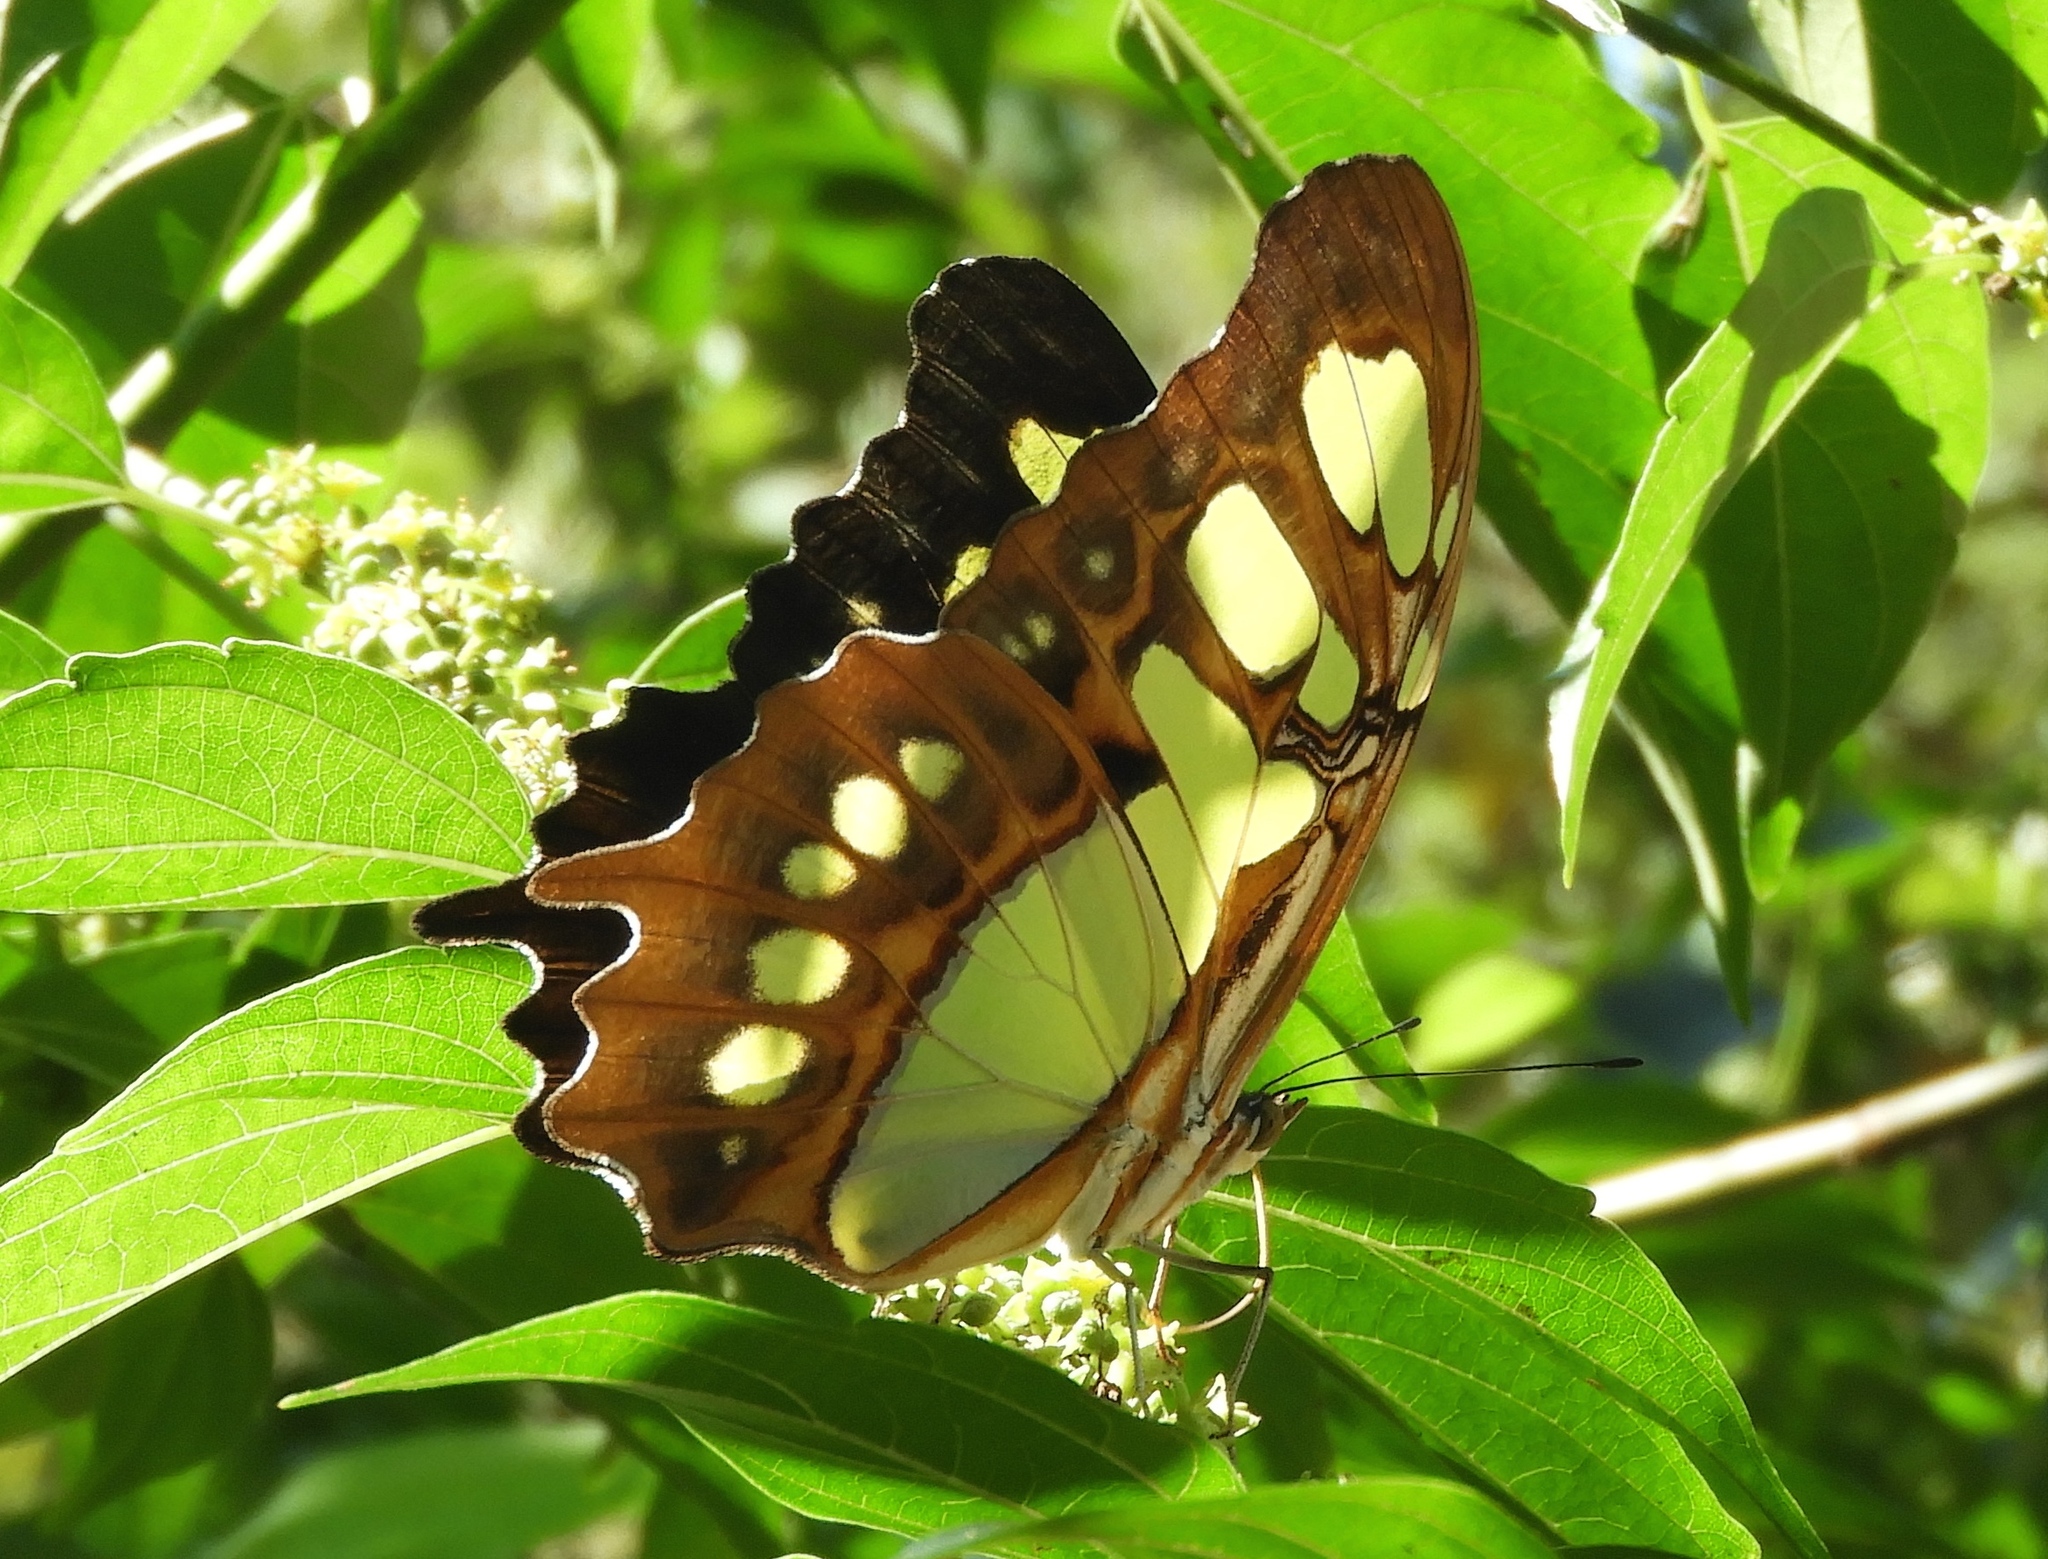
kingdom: Animalia
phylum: Arthropoda
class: Insecta
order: Lepidoptera
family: Nymphalidae
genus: Siproeta
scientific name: Siproeta stelenes
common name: Malachite
